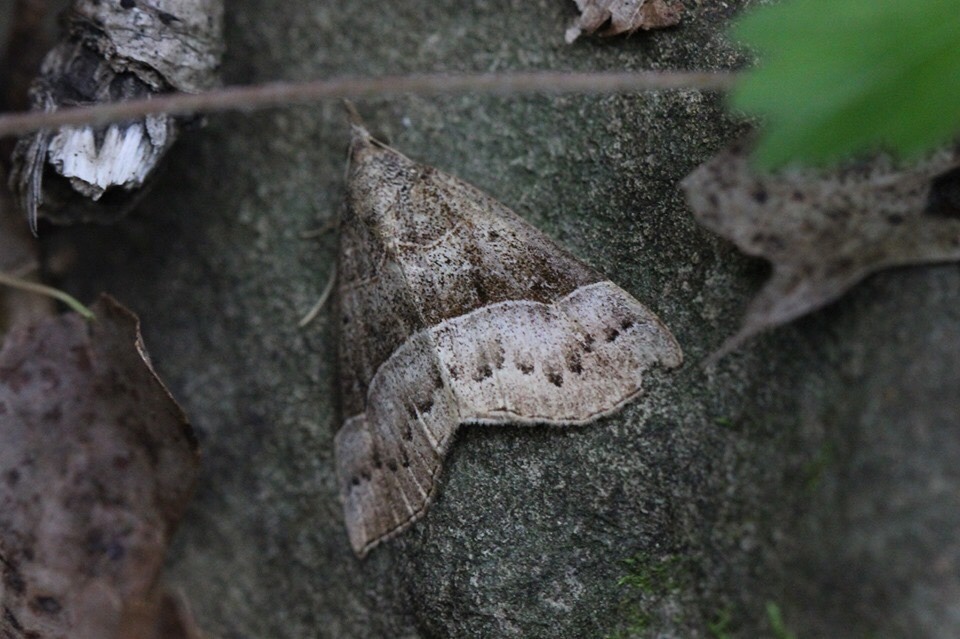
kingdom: Animalia
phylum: Arthropoda
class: Insecta
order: Lepidoptera
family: Erebidae
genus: Hypena
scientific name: Hypena deceptalis
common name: Deceptive snout
